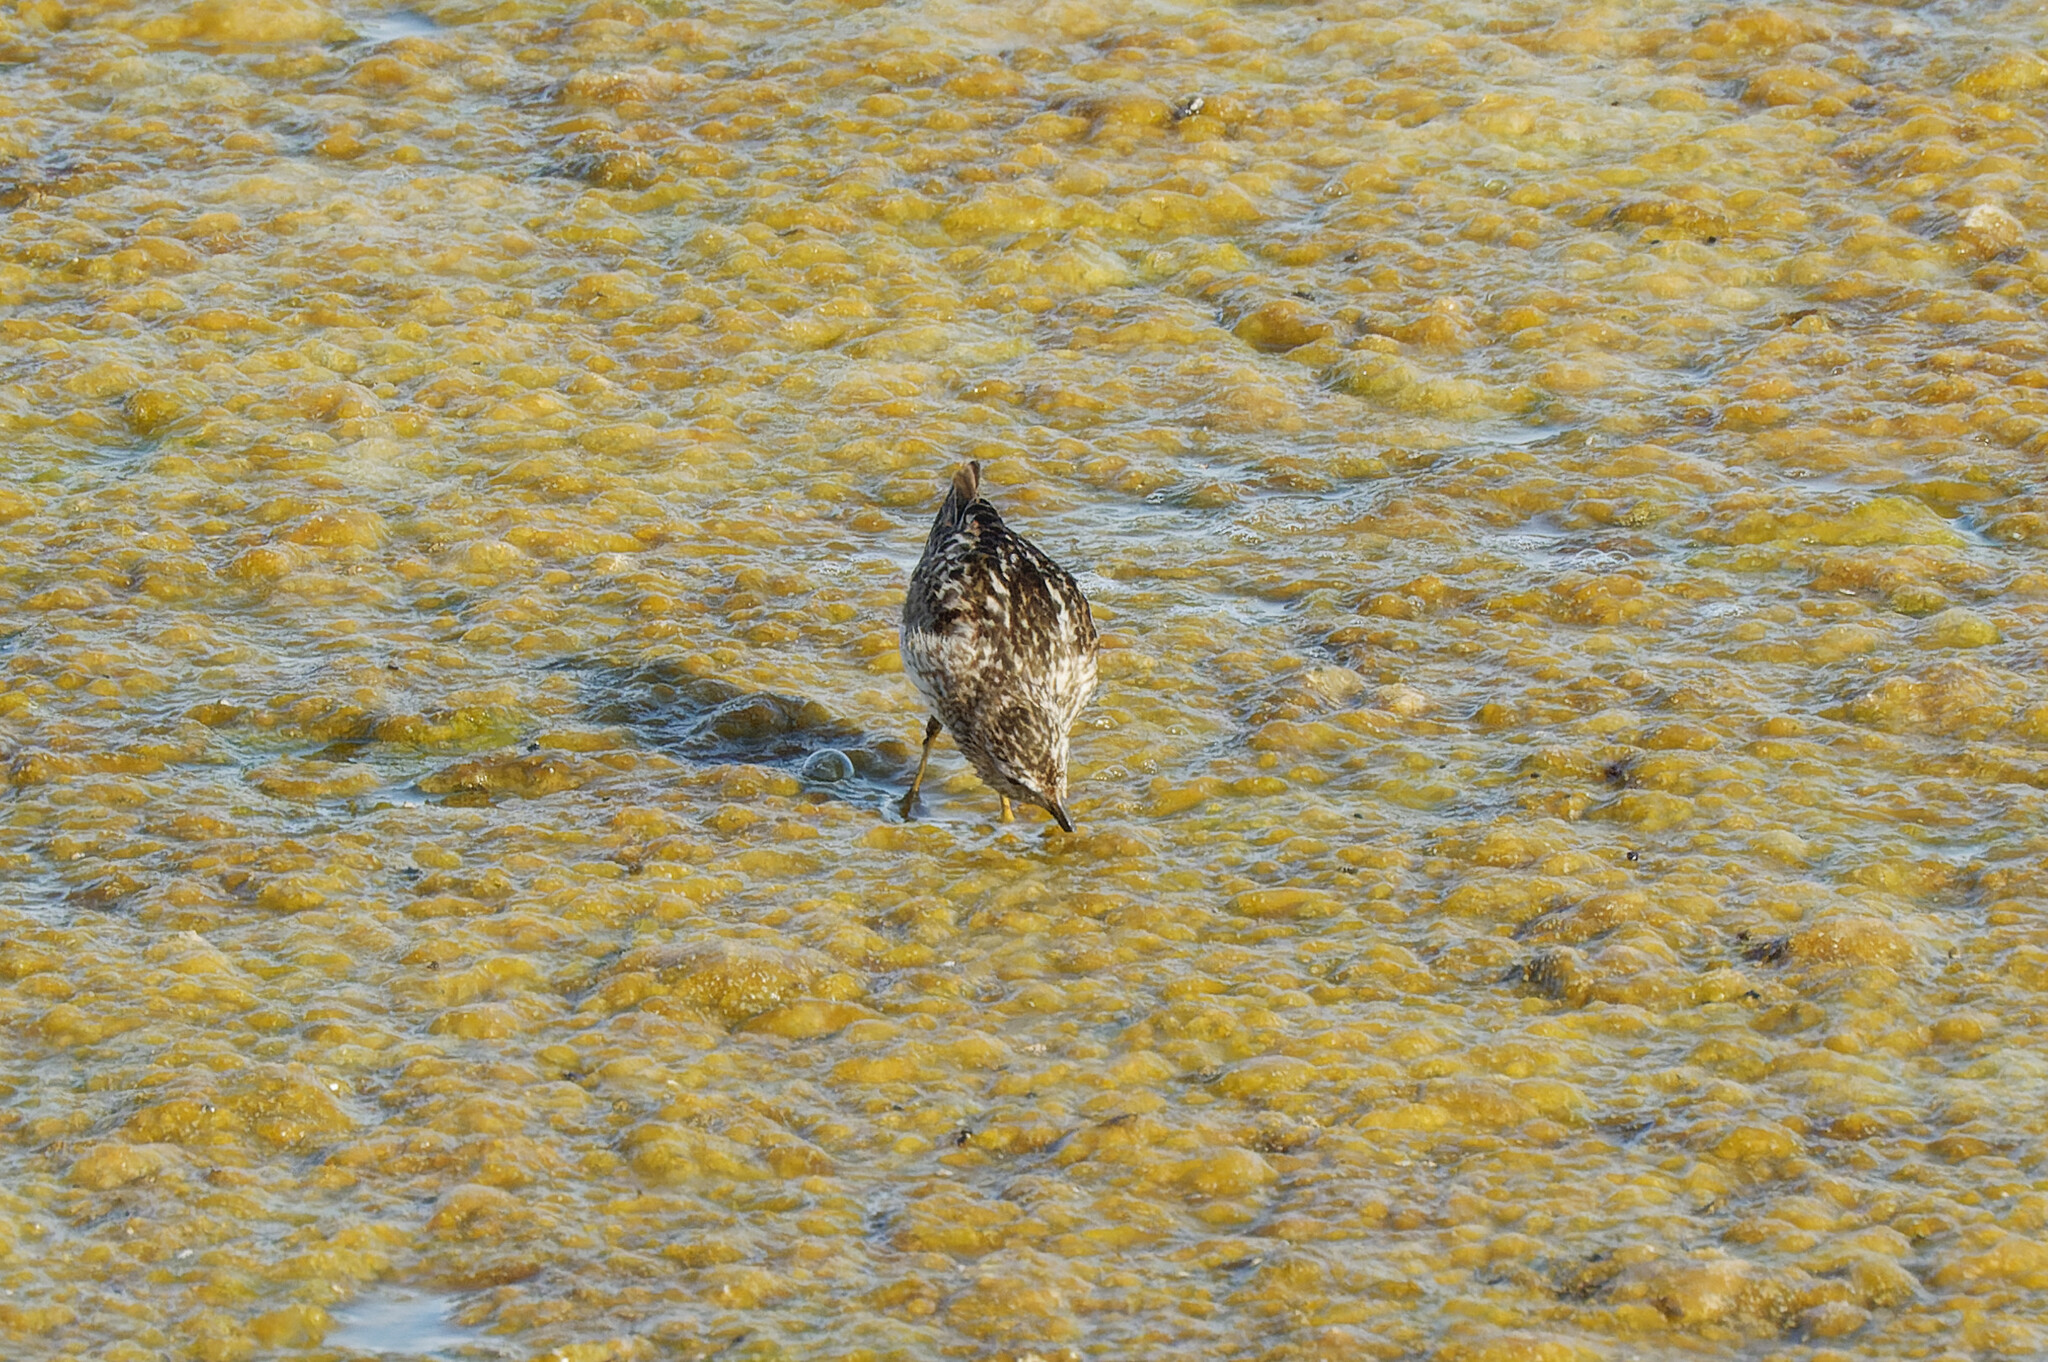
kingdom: Animalia
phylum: Chordata
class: Aves
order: Charadriiformes
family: Scolopacidae
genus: Calidris
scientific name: Calidris minutilla
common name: Least sandpiper
